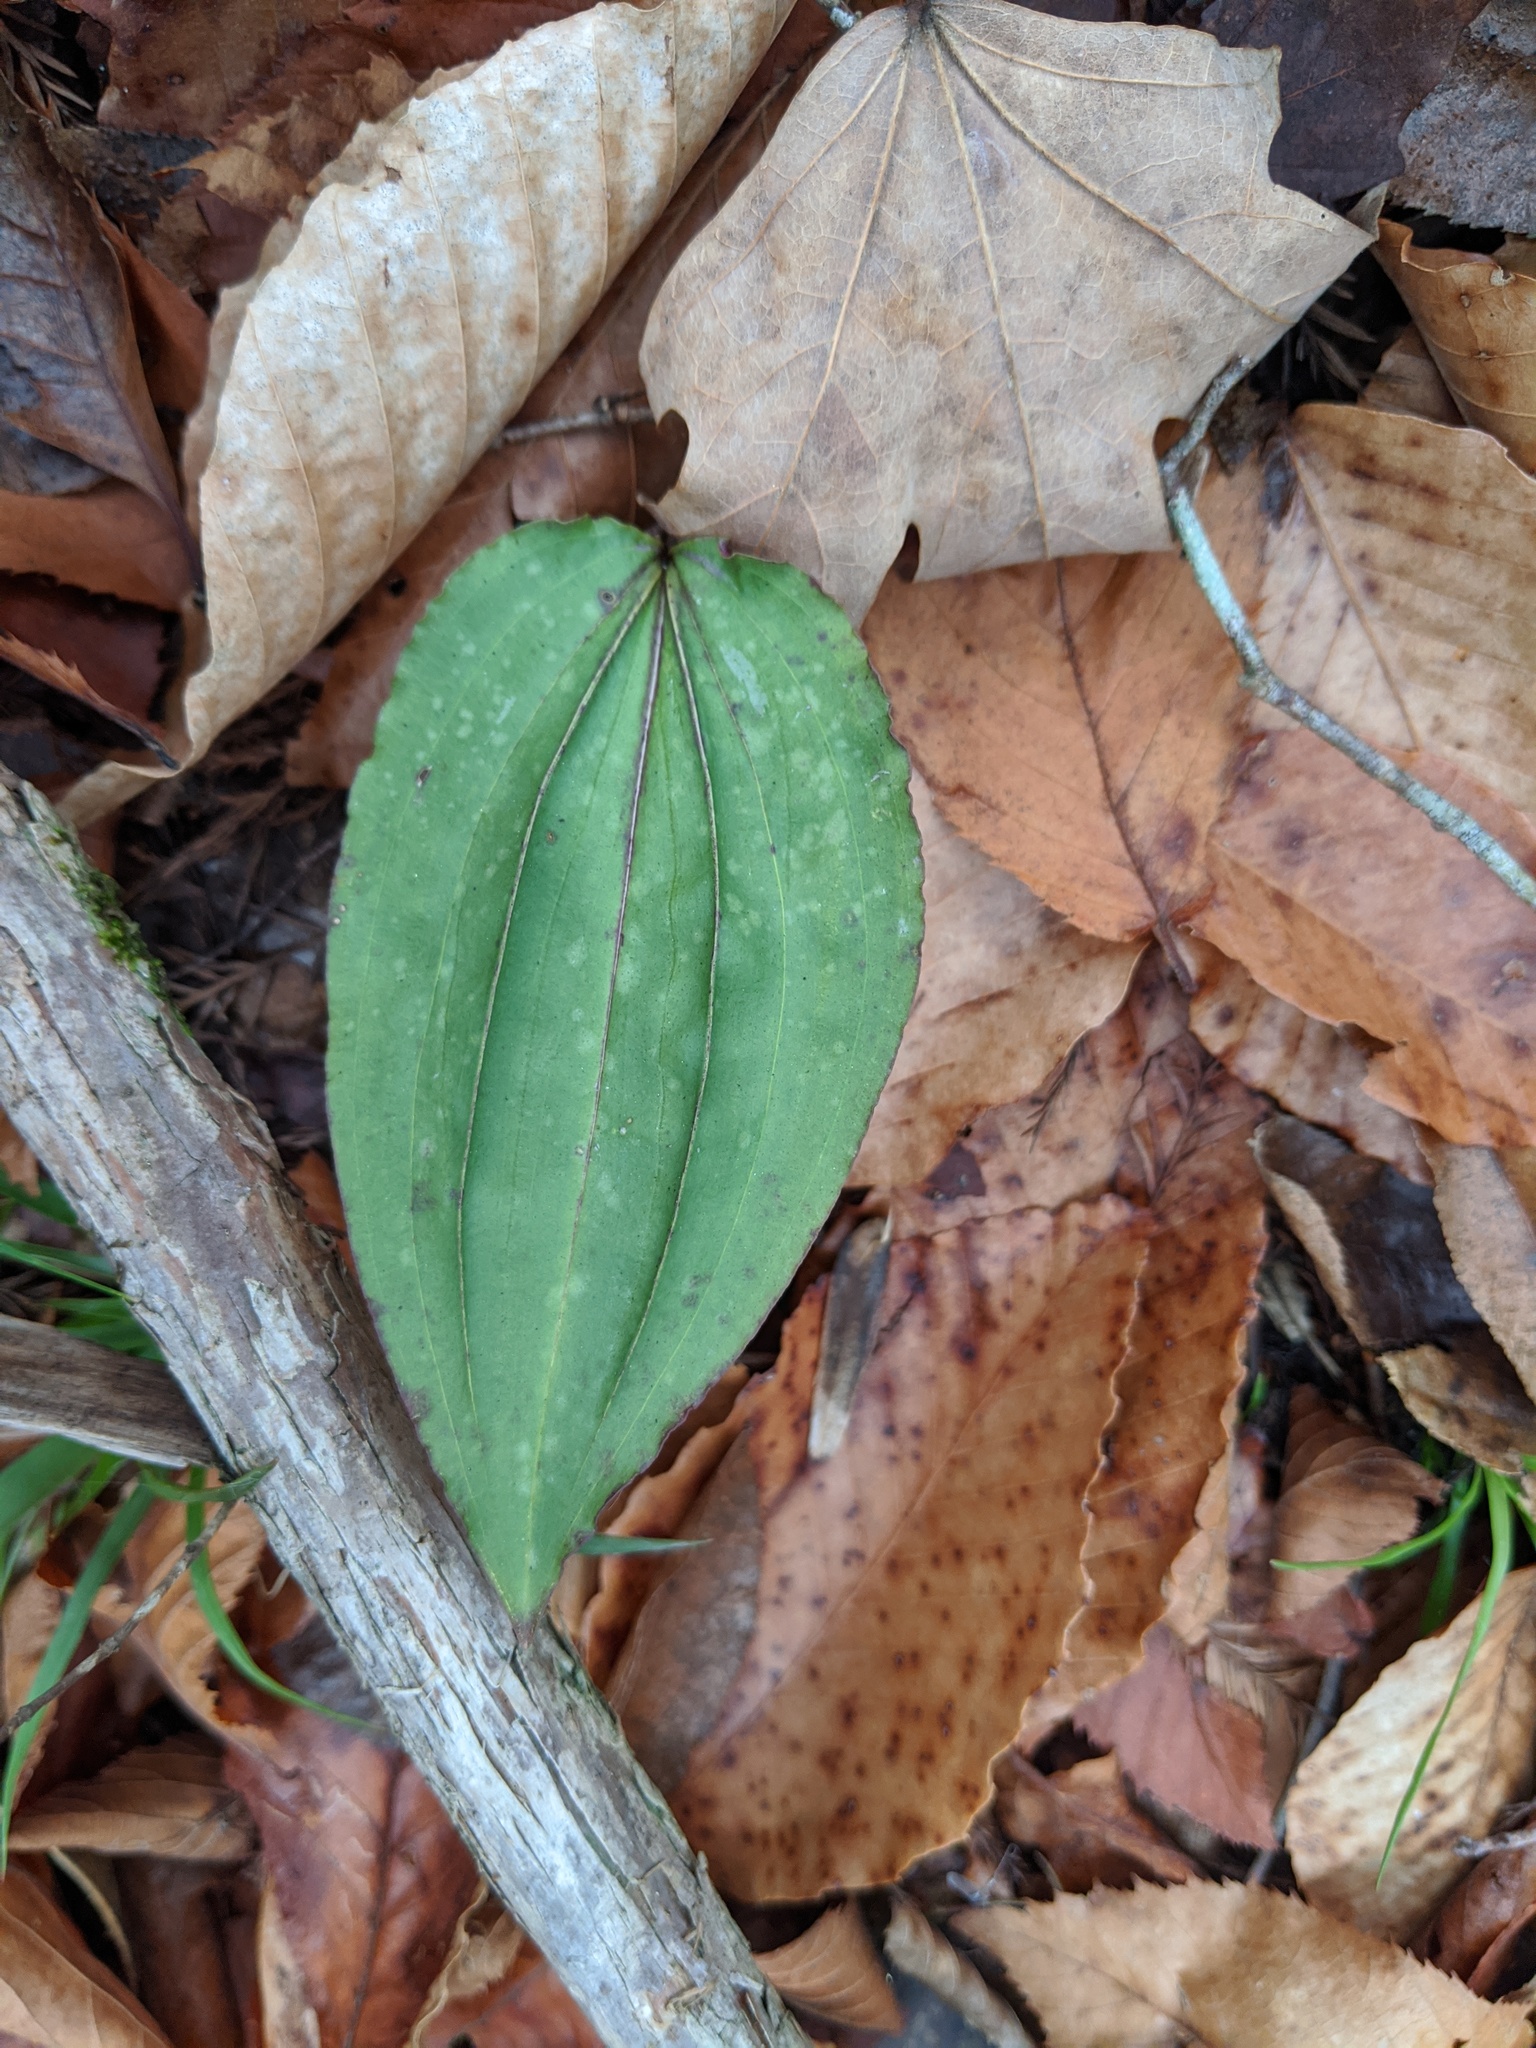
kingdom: Plantae
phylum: Tracheophyta
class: Liliopsida
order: Asparagales
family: Orchidaceae
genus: Tipularia
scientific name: Tipularia discolor
